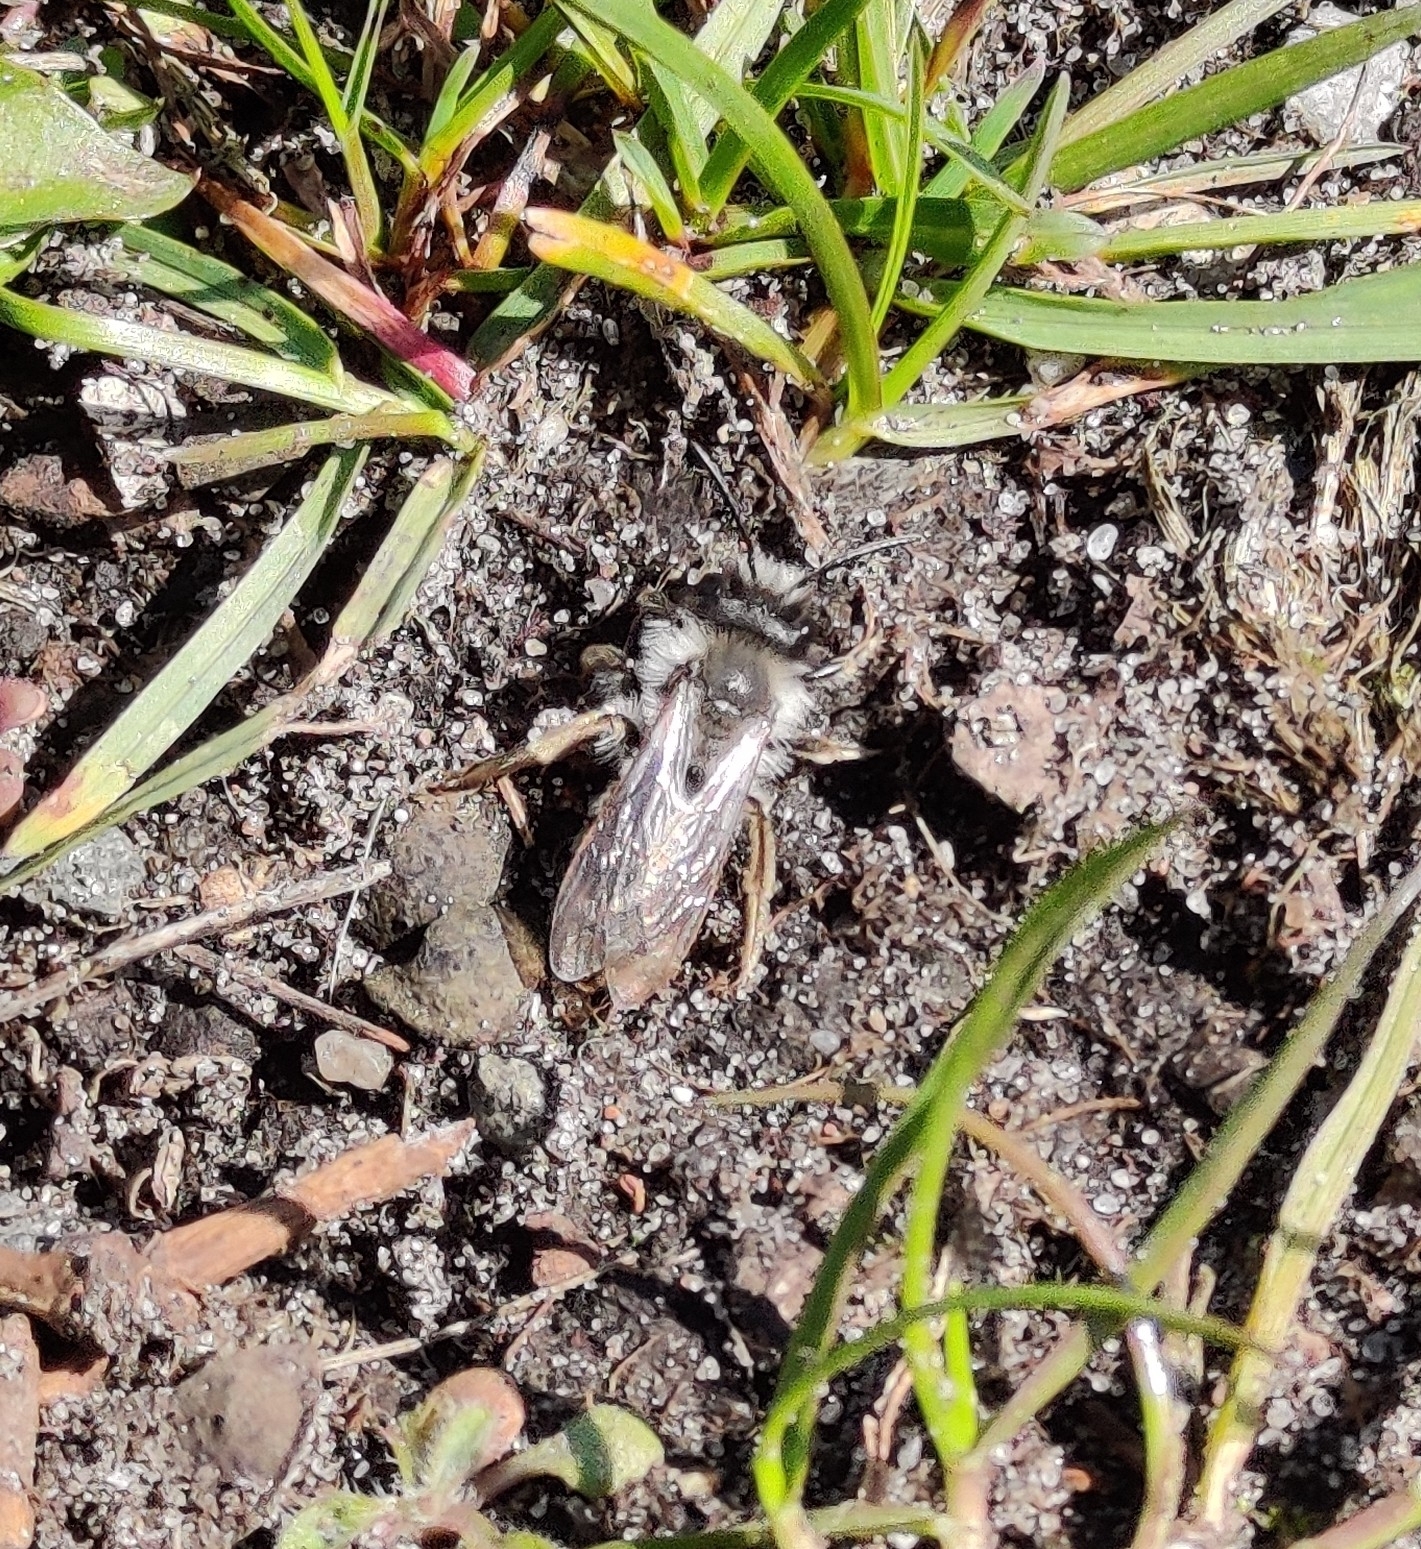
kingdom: Animalia
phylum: Arthropoda
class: Insecta
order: Hymenoptera
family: Andrenidae
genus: Andrena
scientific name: Andrena vaga
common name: Grey-backed mining bee
